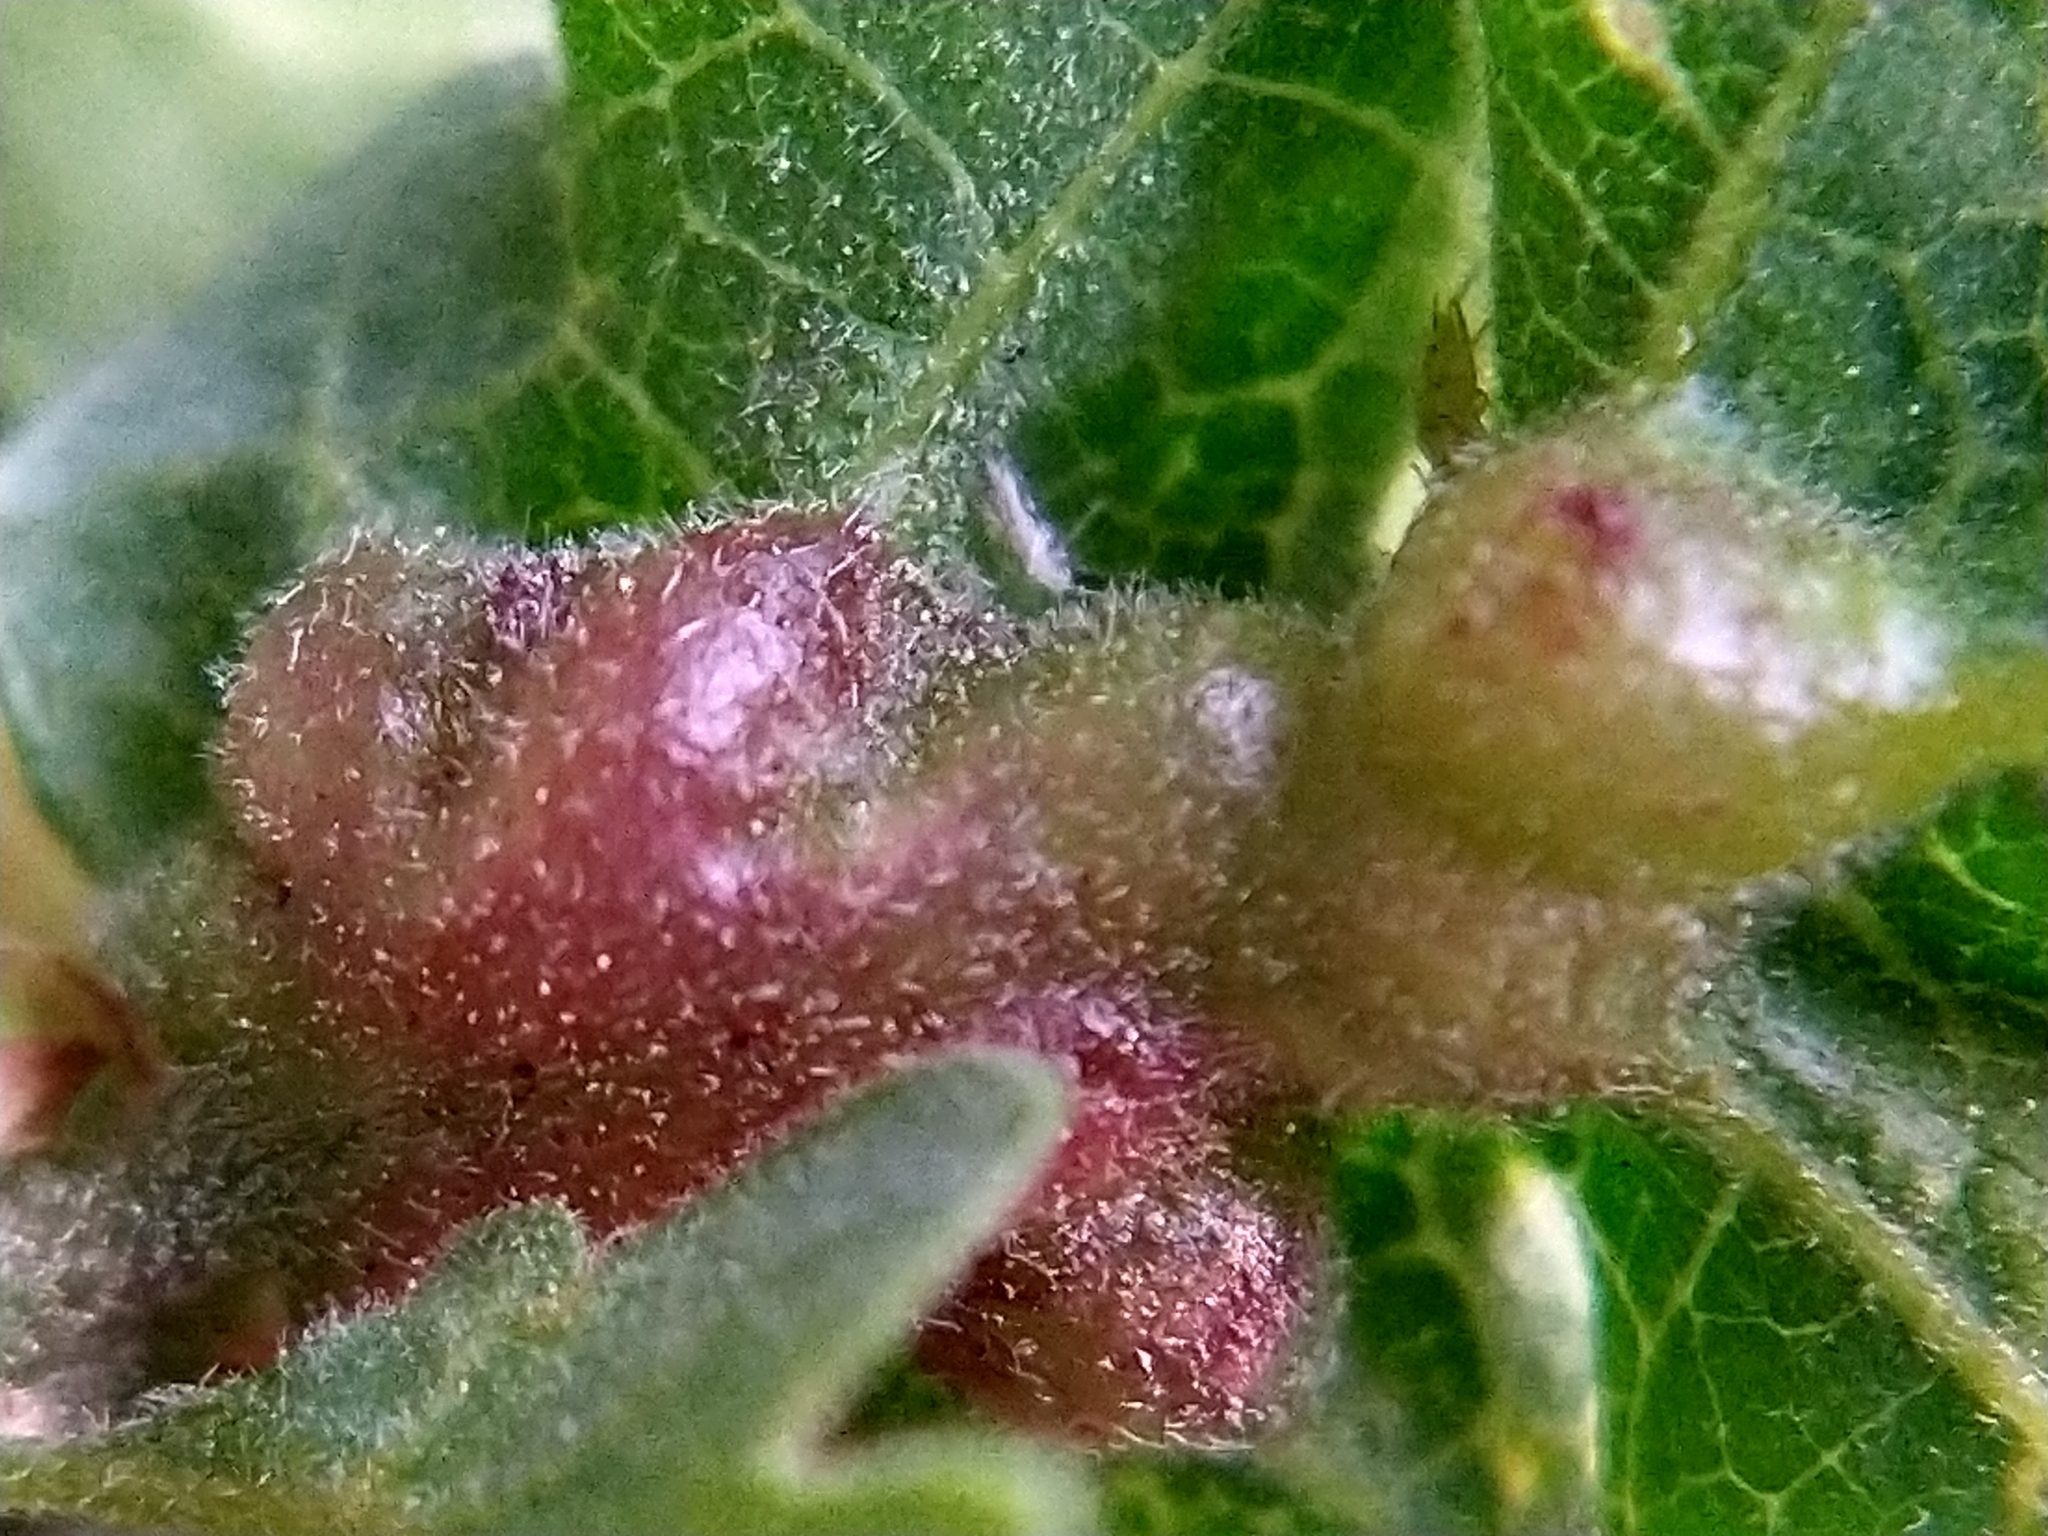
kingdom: Animalia
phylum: Arthropoda
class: Insecta
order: Hymenoptera
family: Cynipidae
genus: Neuroterus
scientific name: Neuroterus
